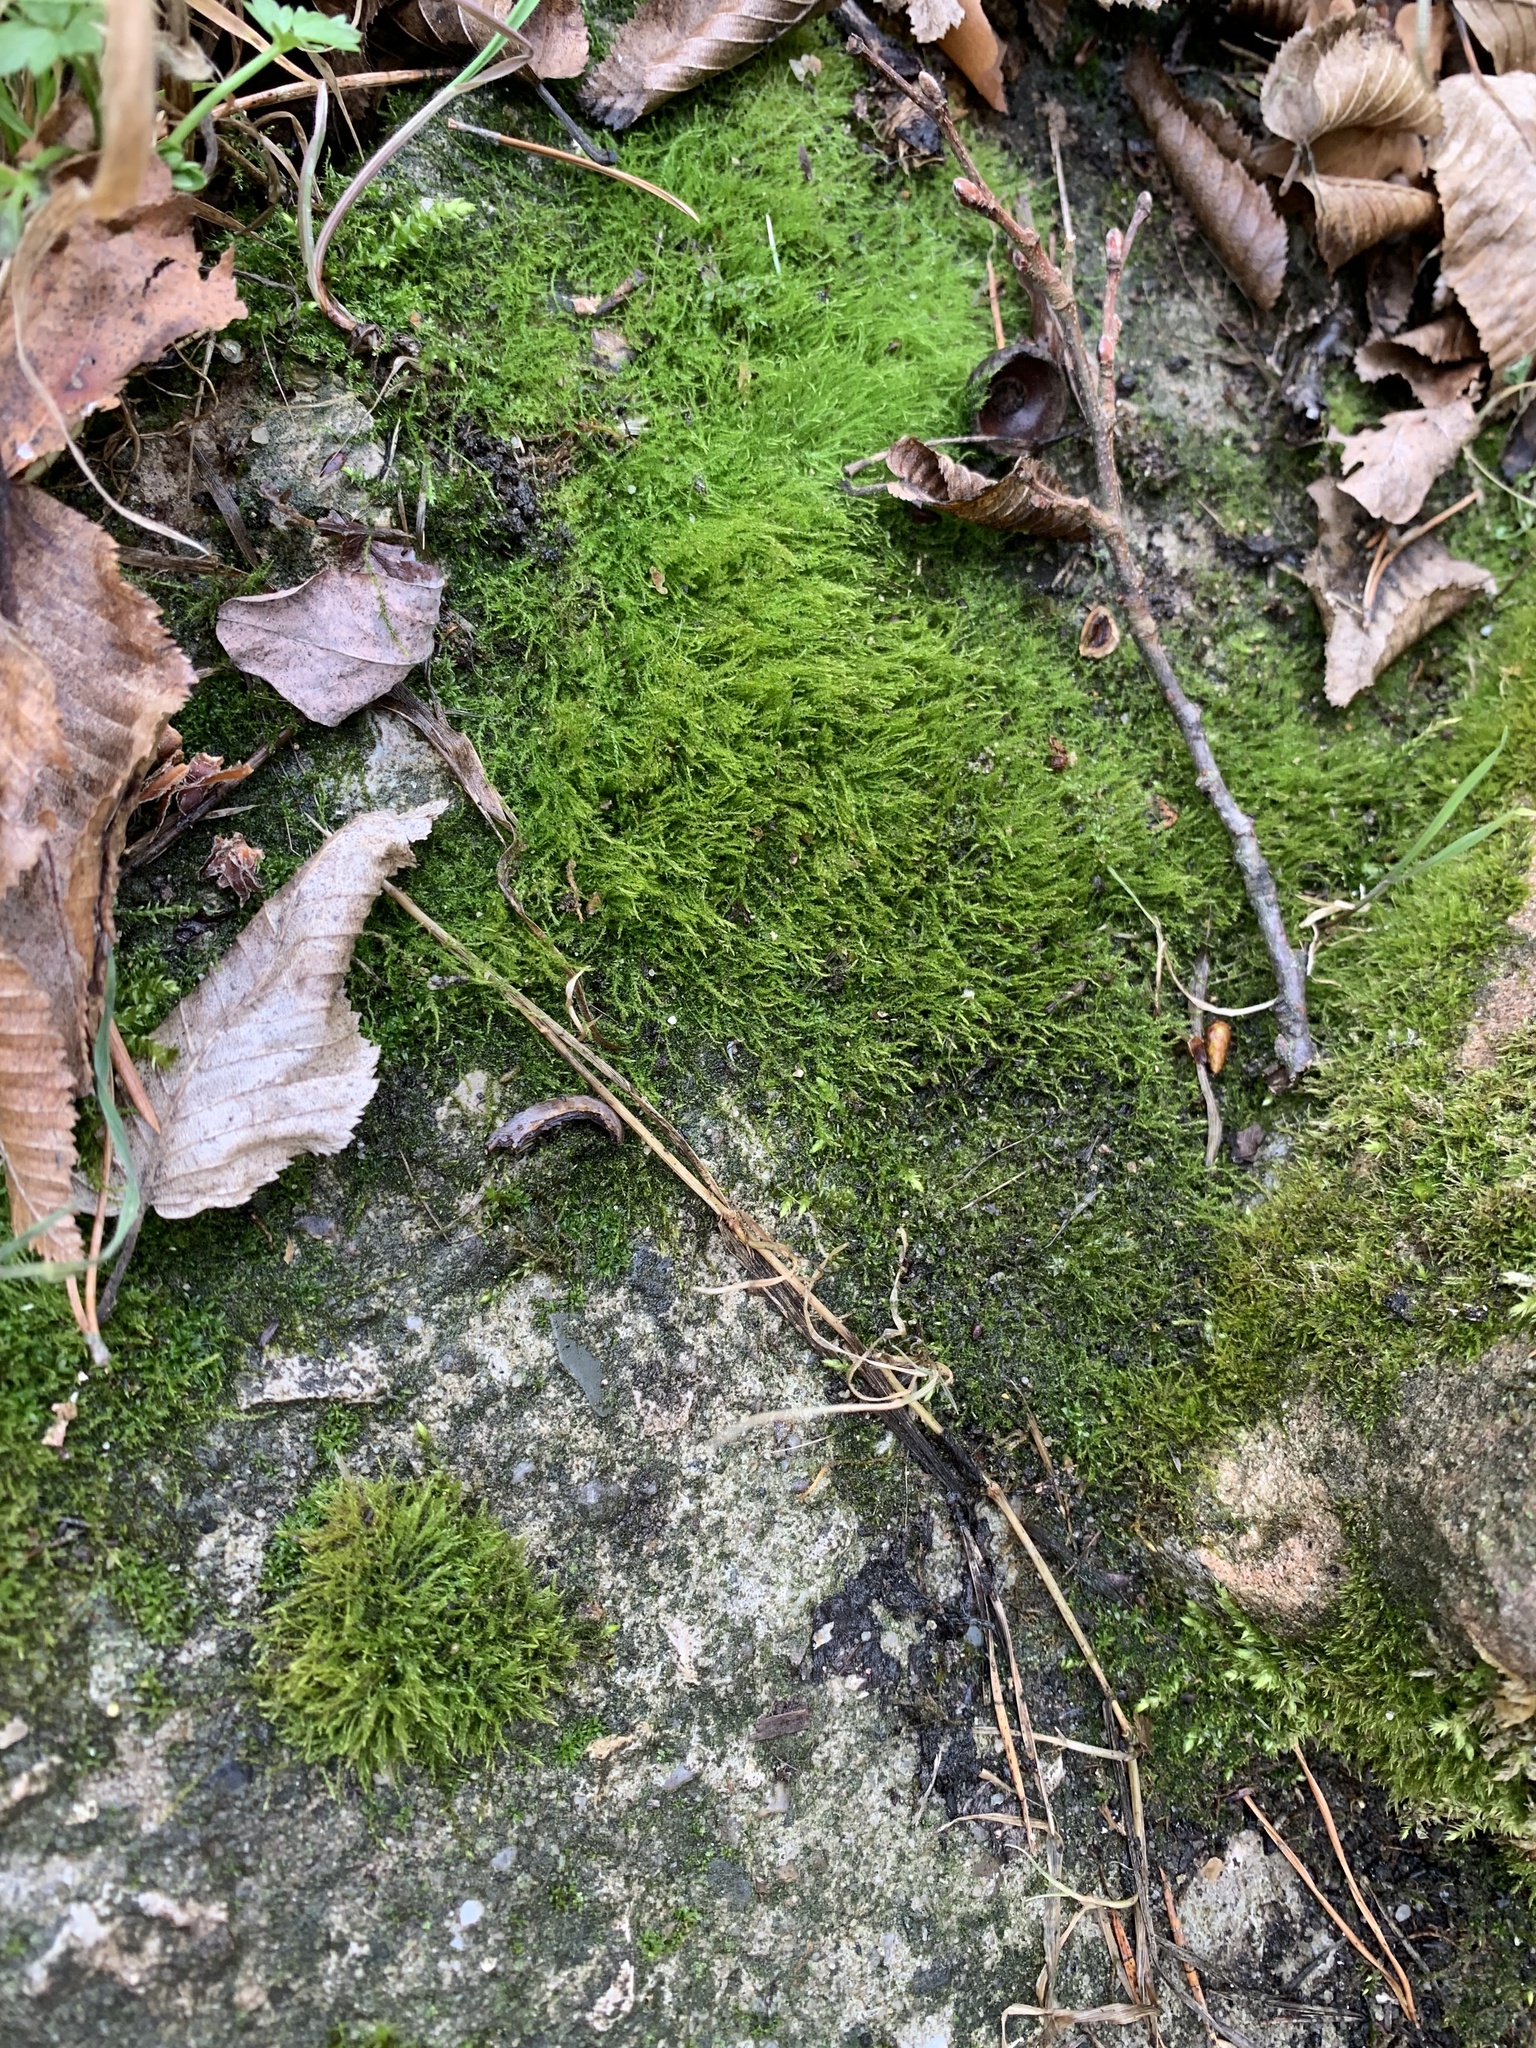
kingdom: Plantae
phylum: Bryophyta
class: Bryopsida
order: Hypnales
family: Amblystegiaceae
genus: Amblystegium
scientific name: Amblystegium serpens
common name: Jurkatzka's feather moss
